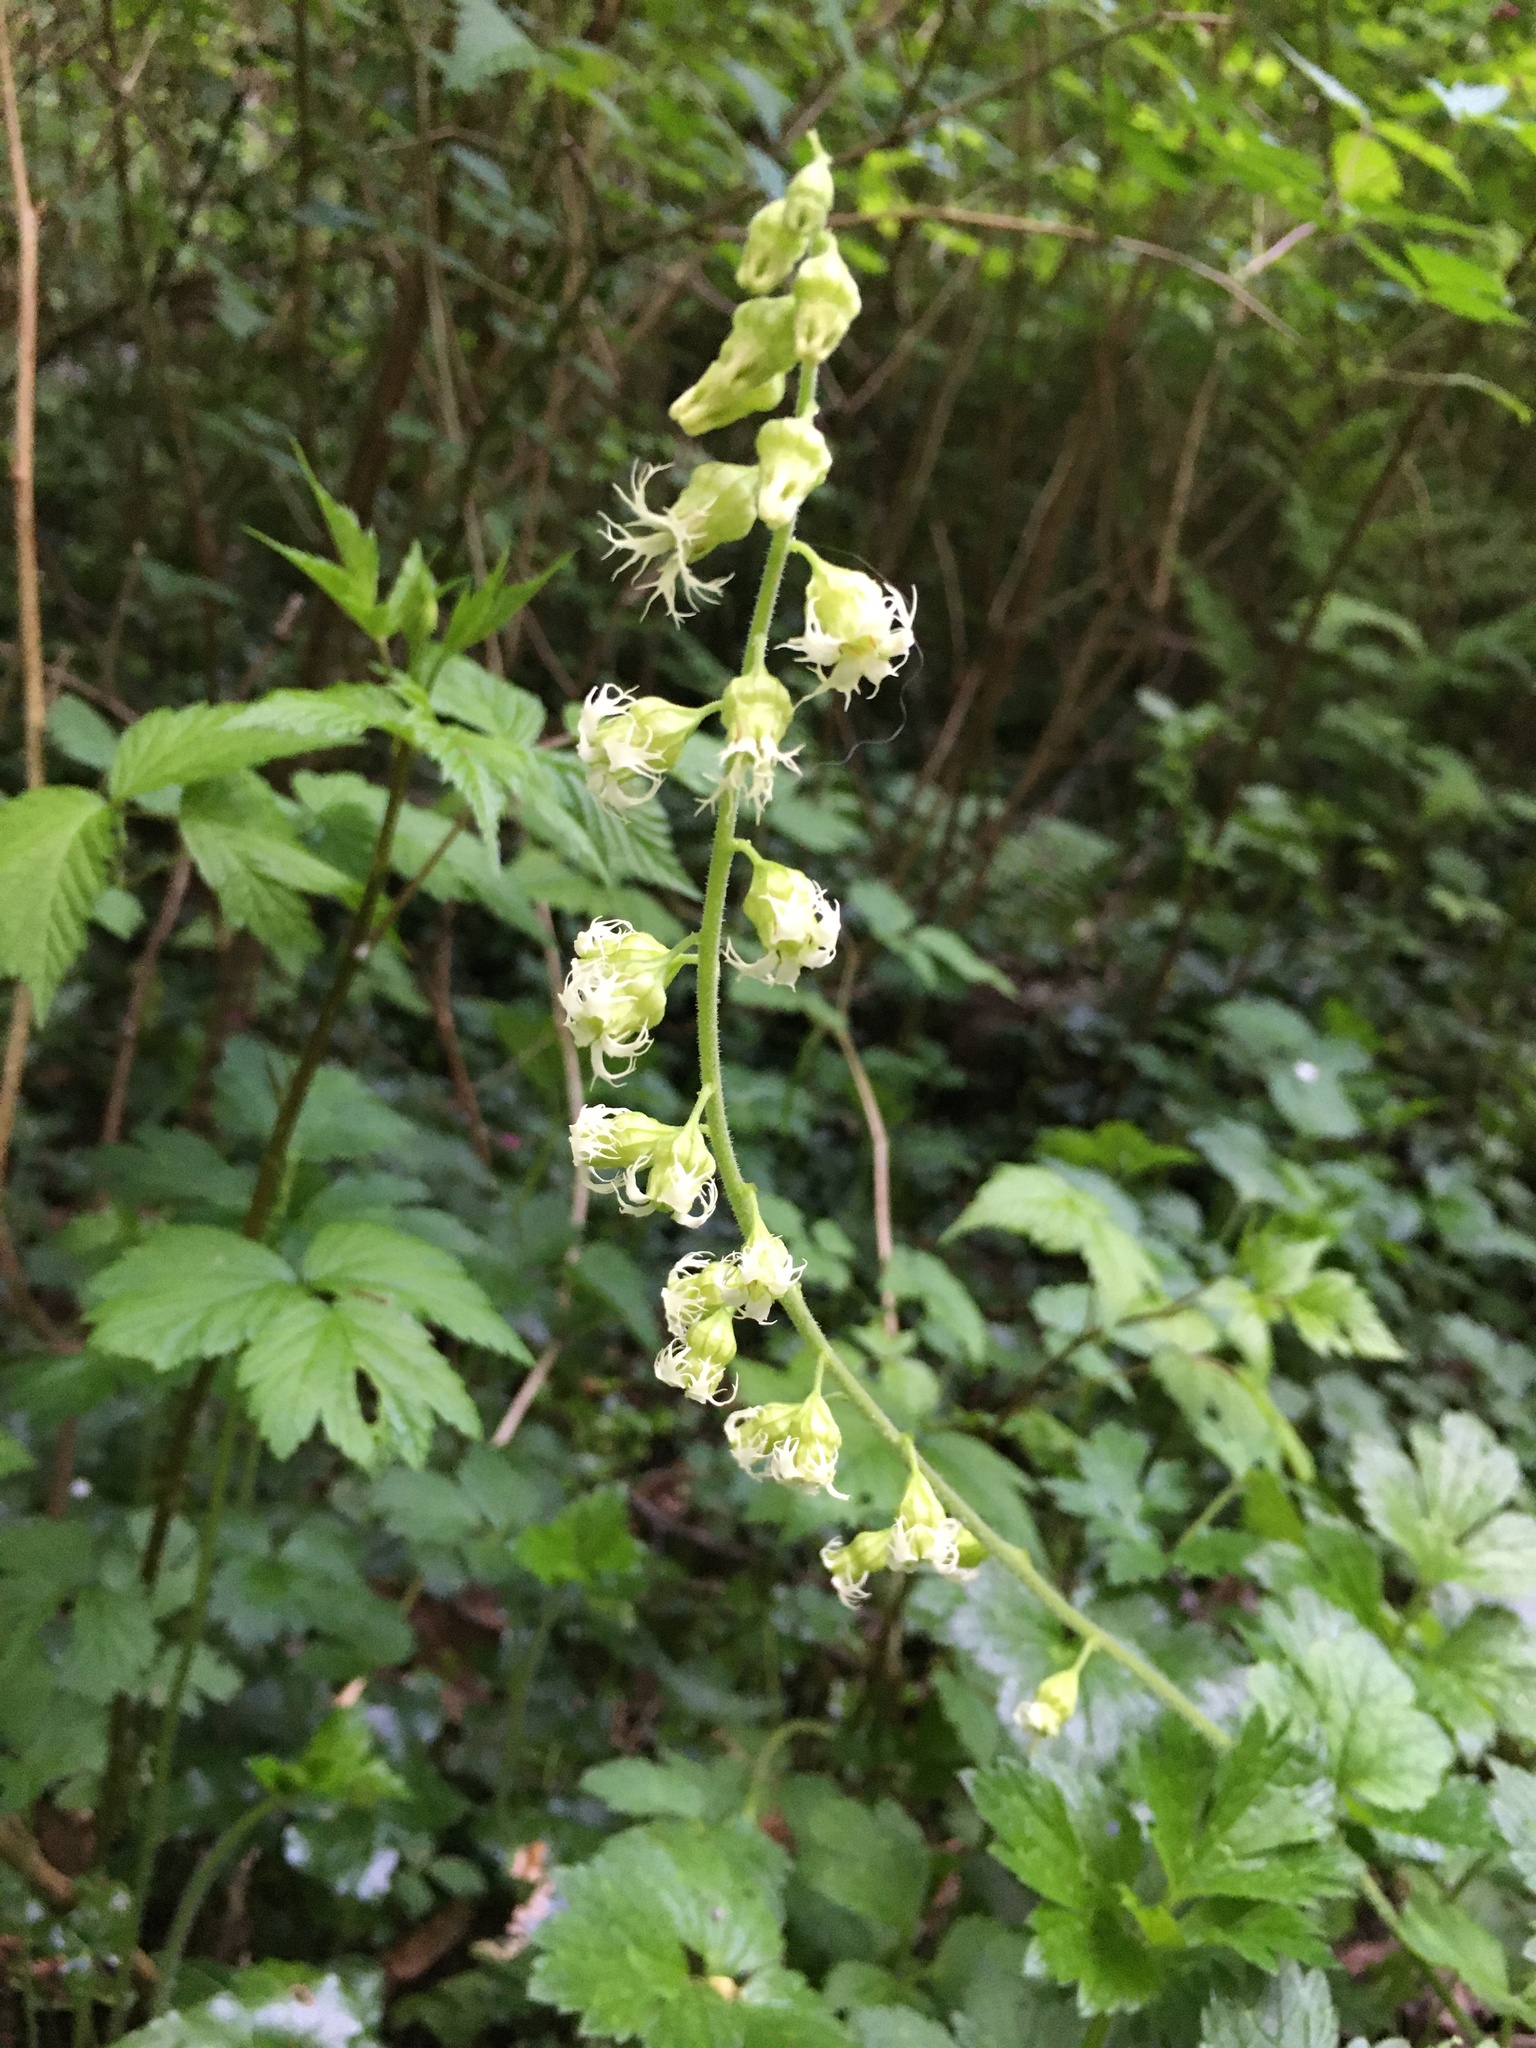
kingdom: Plantae
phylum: Tracheophyta
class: Magnoliopsida
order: Saxifragales
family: Saxifragaceae
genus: Tellima
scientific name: Tellima grandiflora
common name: Fringecups
